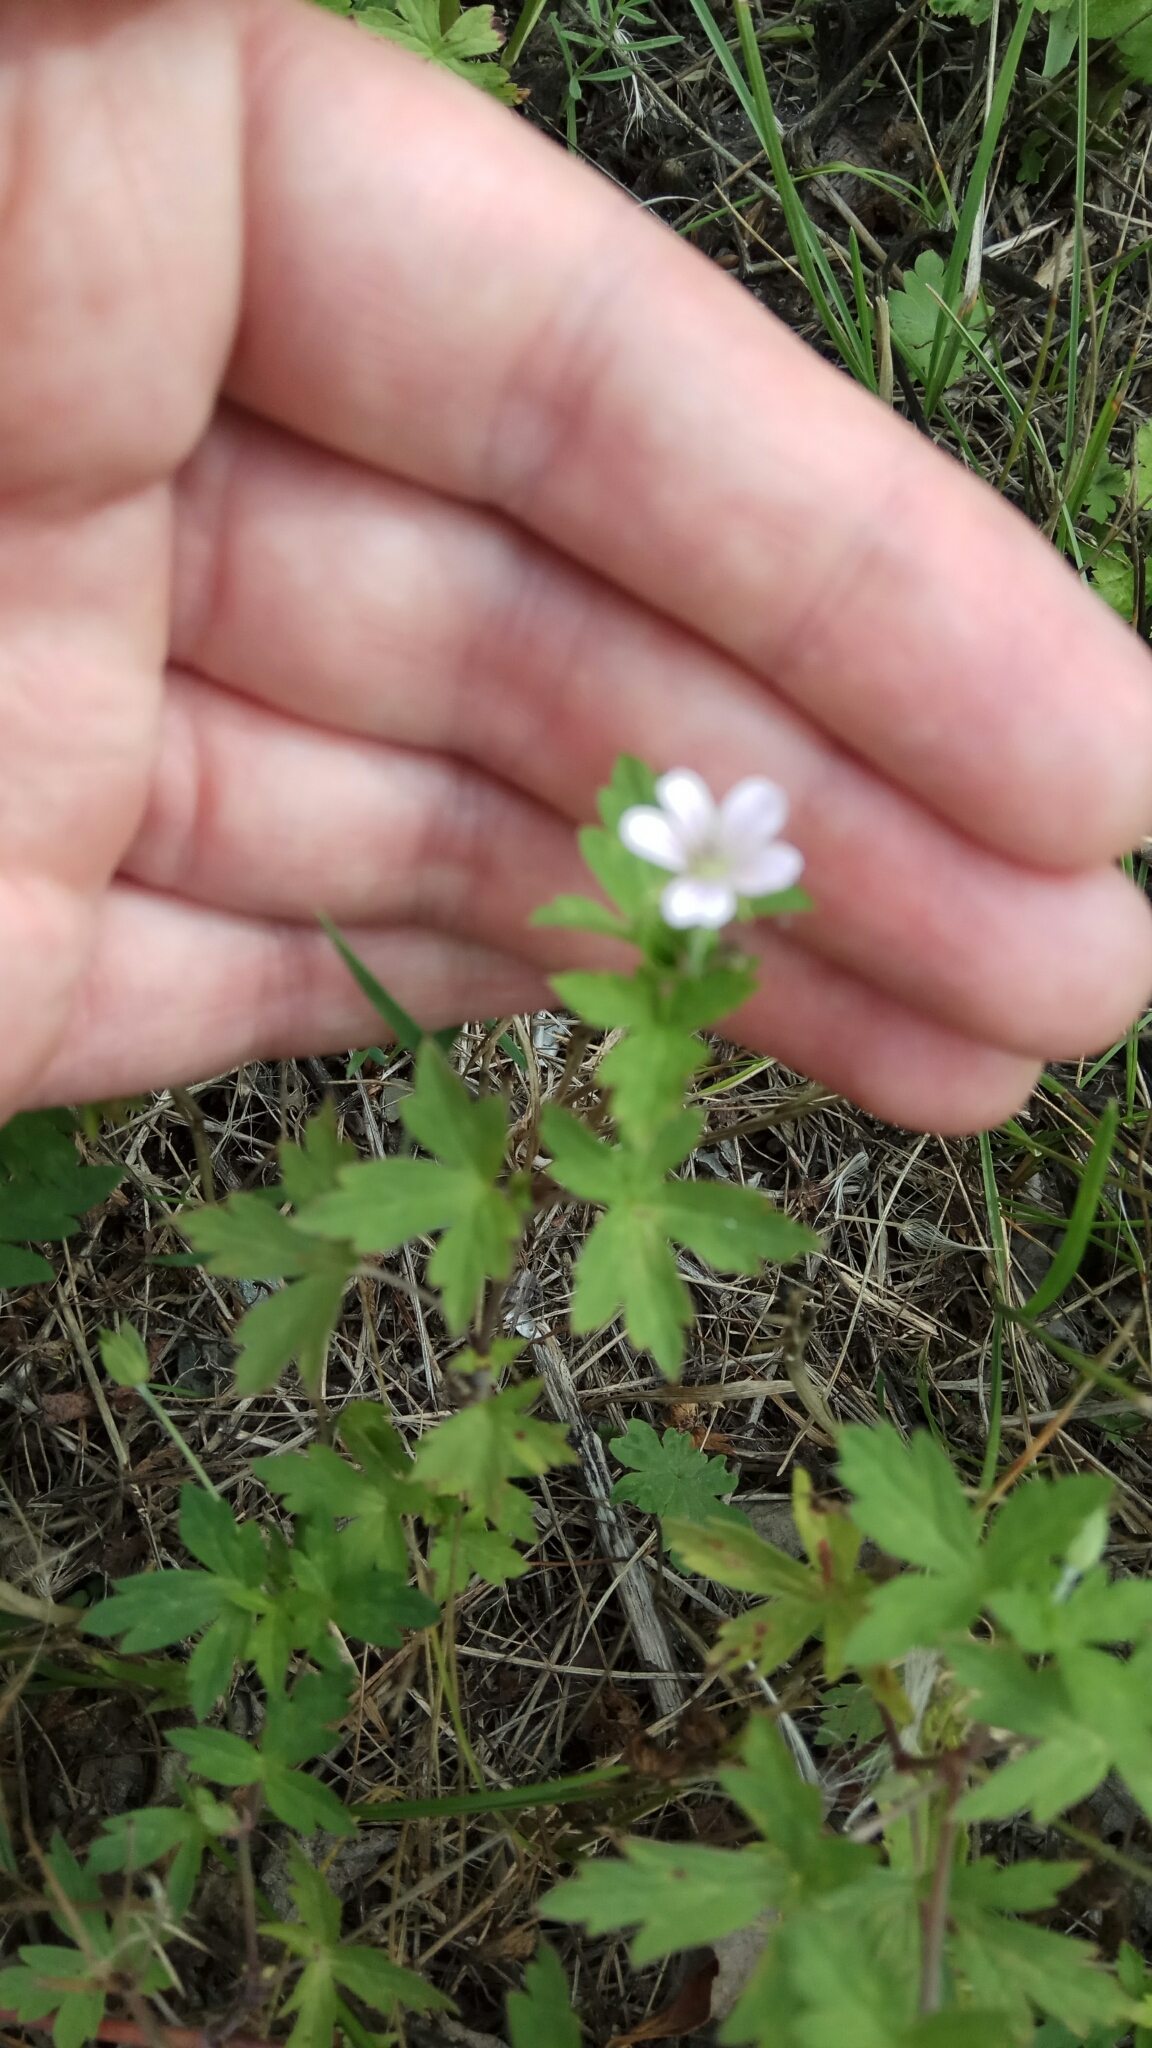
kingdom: Plantae
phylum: Tracheophyta
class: Magnoliopsida
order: Geraniales
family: Geraniaceae
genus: Geranium
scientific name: Geranium sibiricum
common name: Siberian crane's-bill
